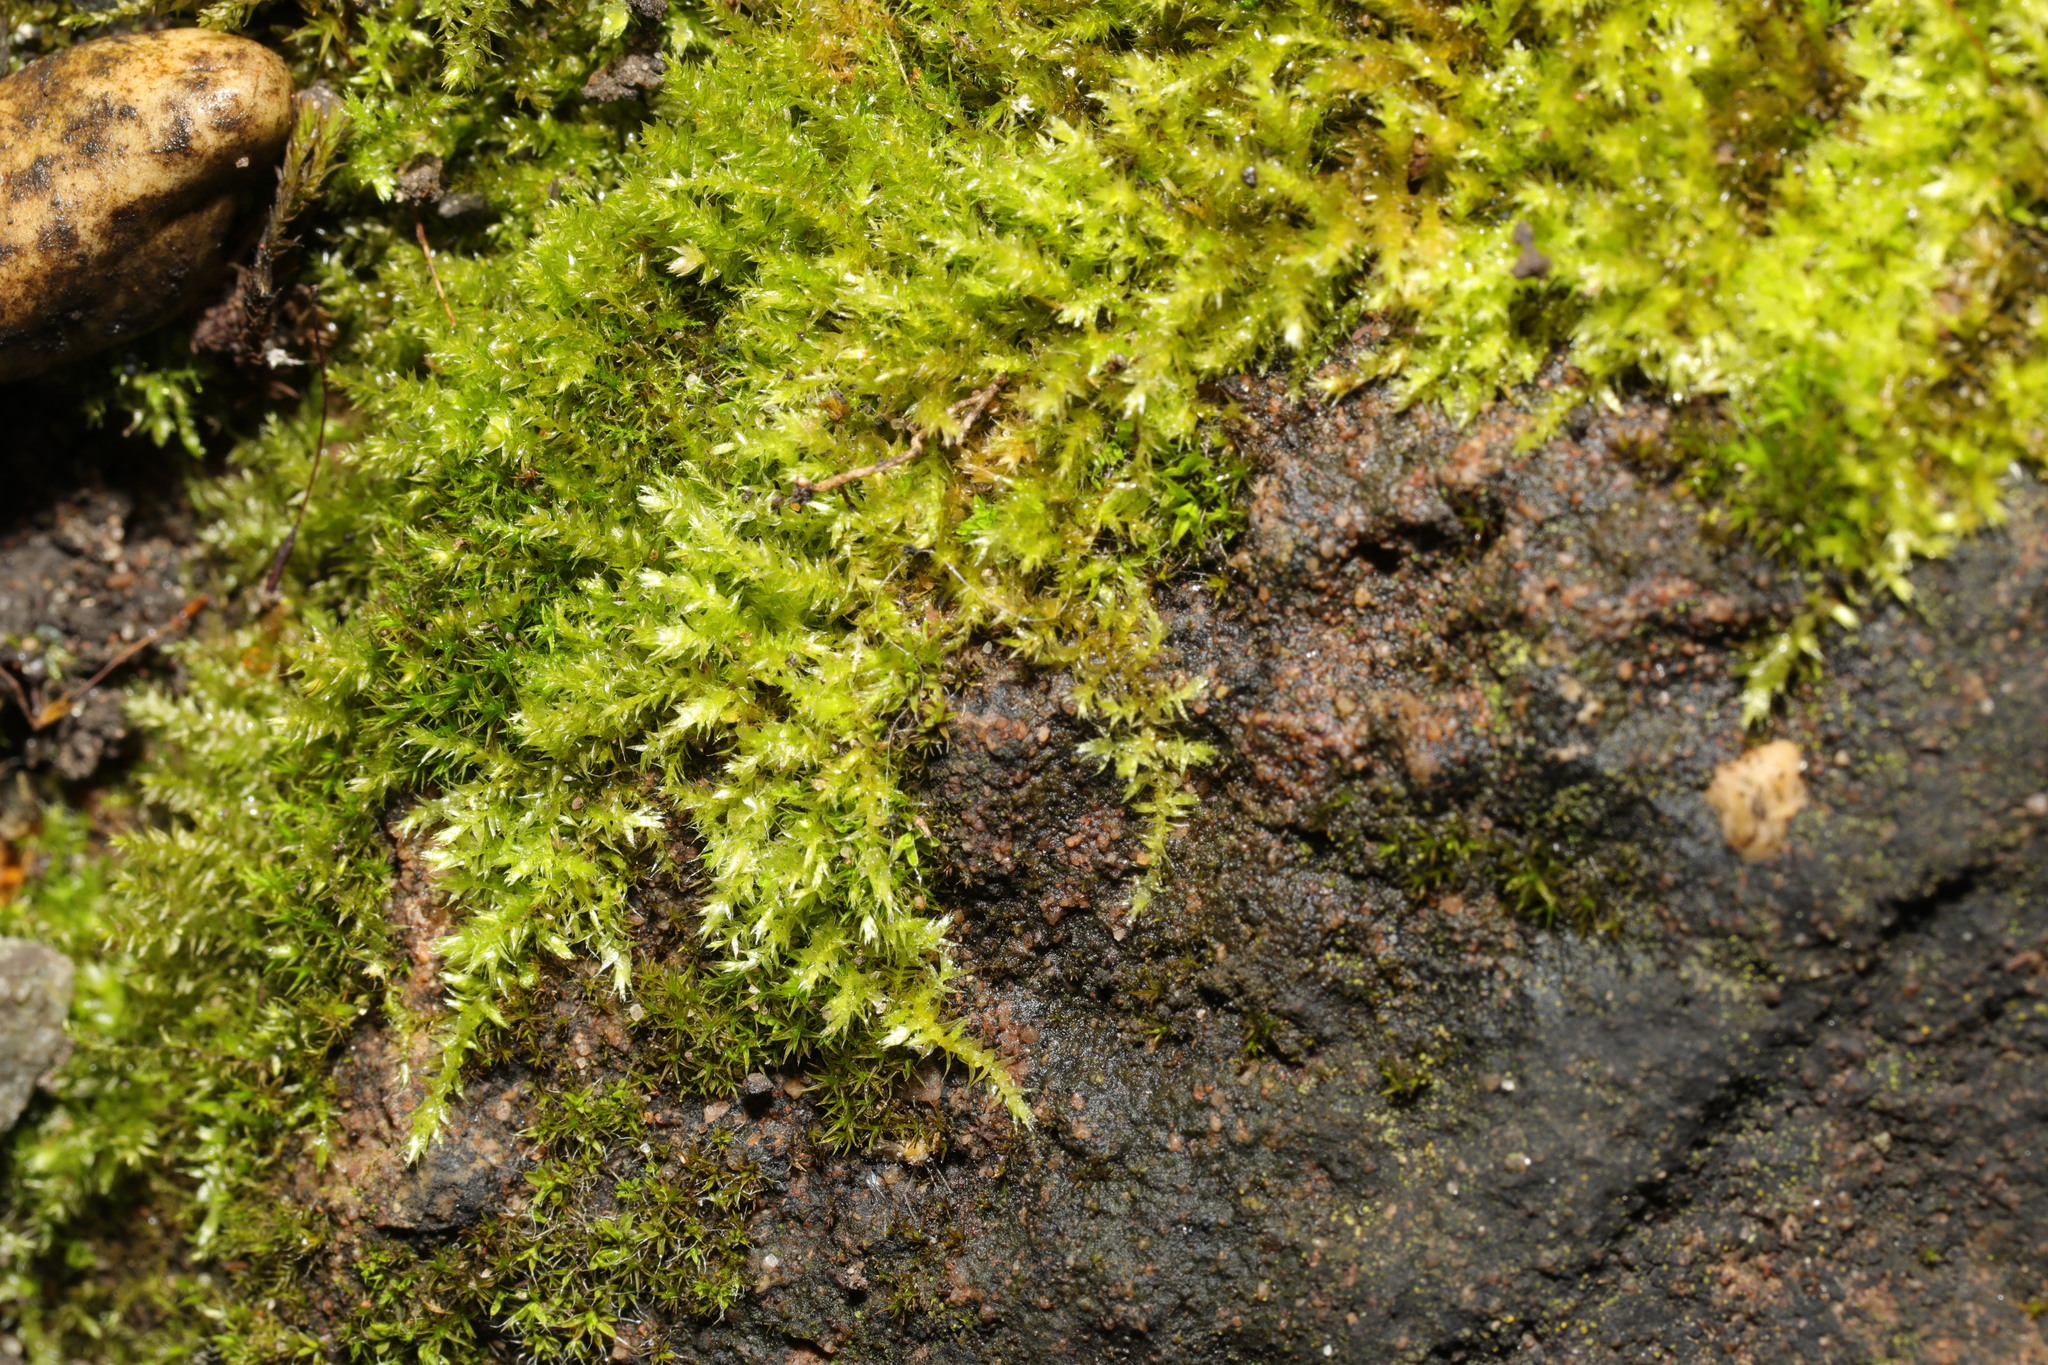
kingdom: Plantae
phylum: Bryophyta
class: Bryopsida
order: Hypnales
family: Brachytheciaceae
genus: Brachythecium
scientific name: Brachythecium rutabulum
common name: Rough-stalked feather-moss
